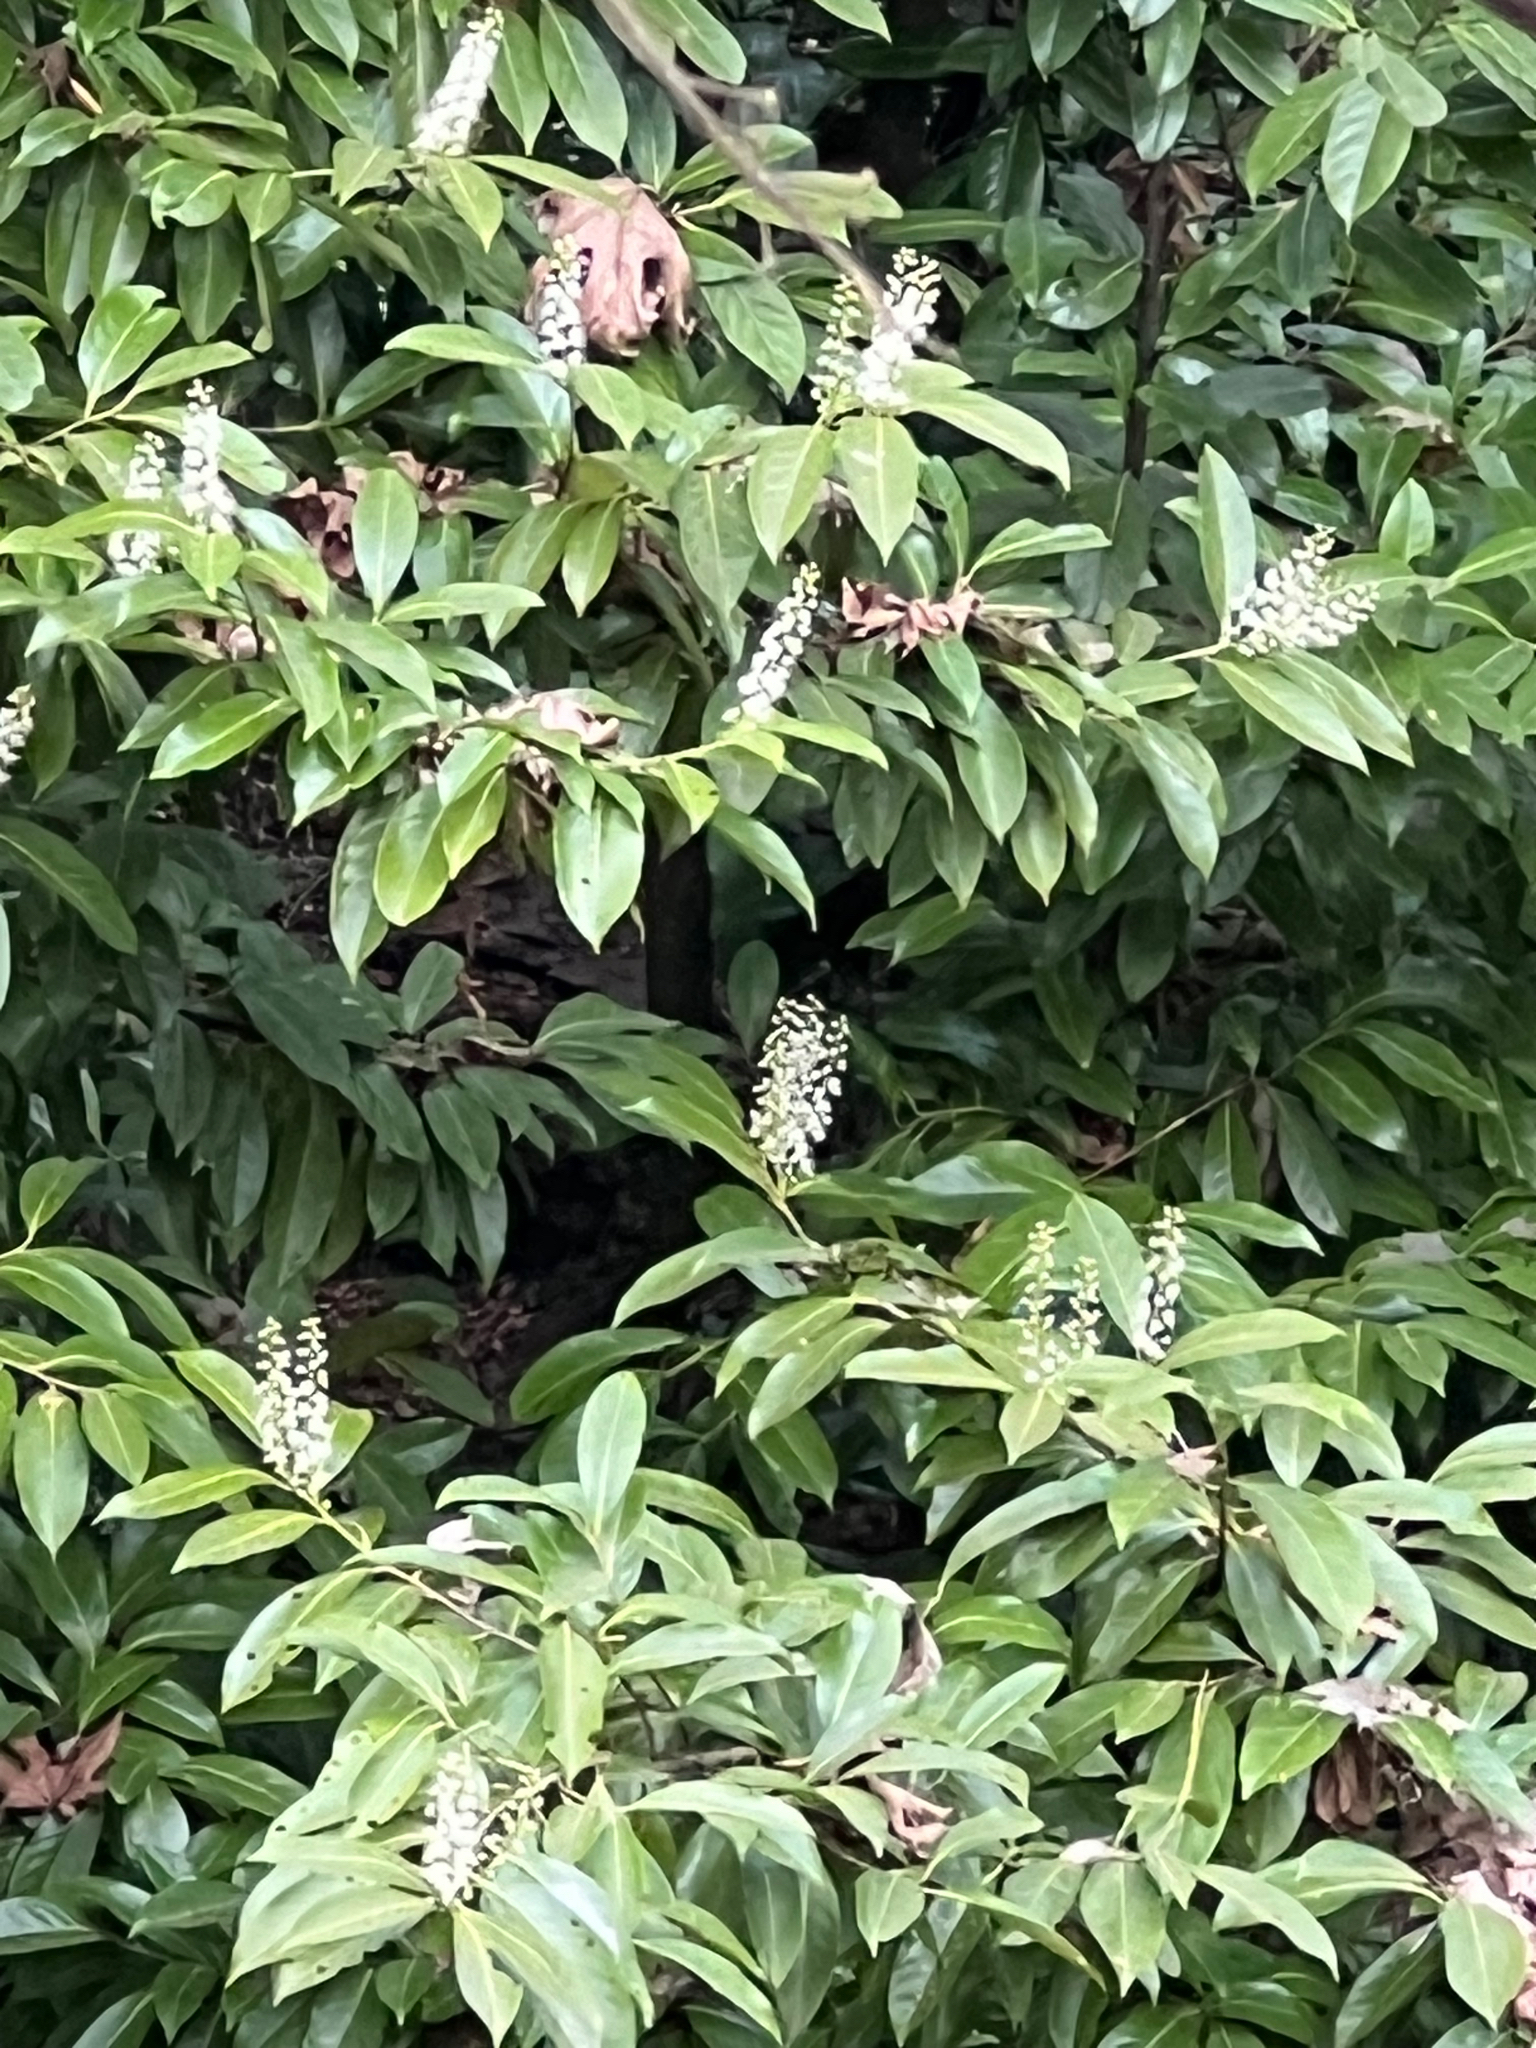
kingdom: Plantae
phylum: Tracheophyta
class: Magnoliopsida
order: Rosales
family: Rosaceae
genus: Prunus
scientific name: Prunus laurocerasus
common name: Cherry laurel
